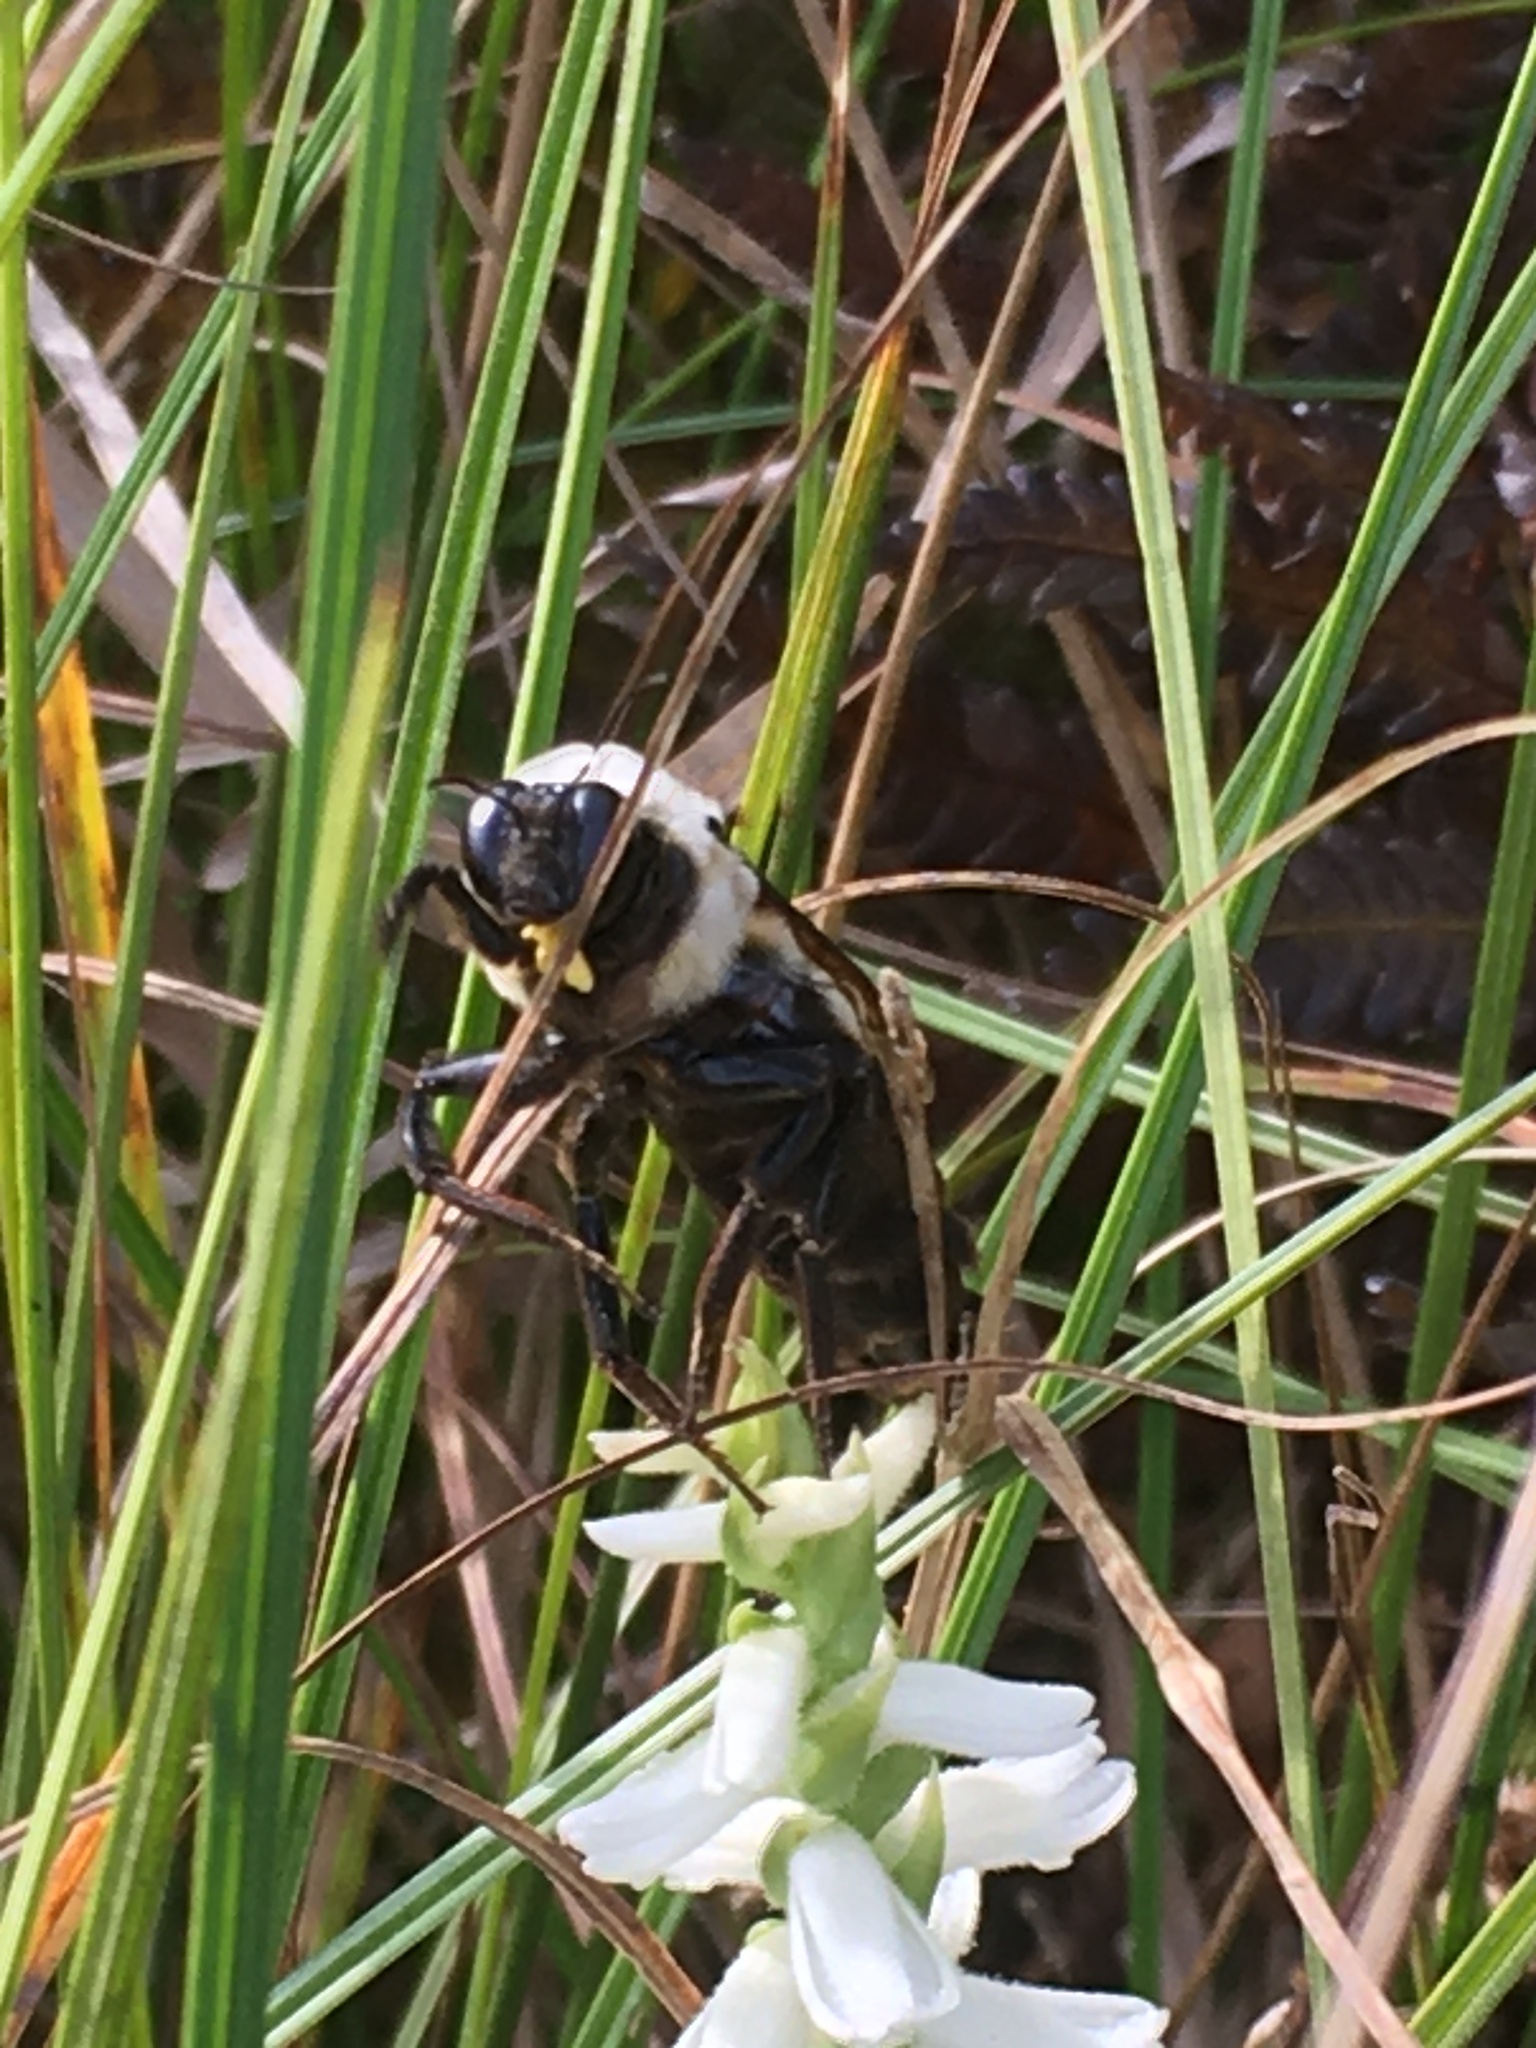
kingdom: Animalia
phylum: Arthropoda
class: Insecta
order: Hymenoptera
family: Apidae
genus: Bombus
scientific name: Bombus fraternus
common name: Southern plains bumble bee
